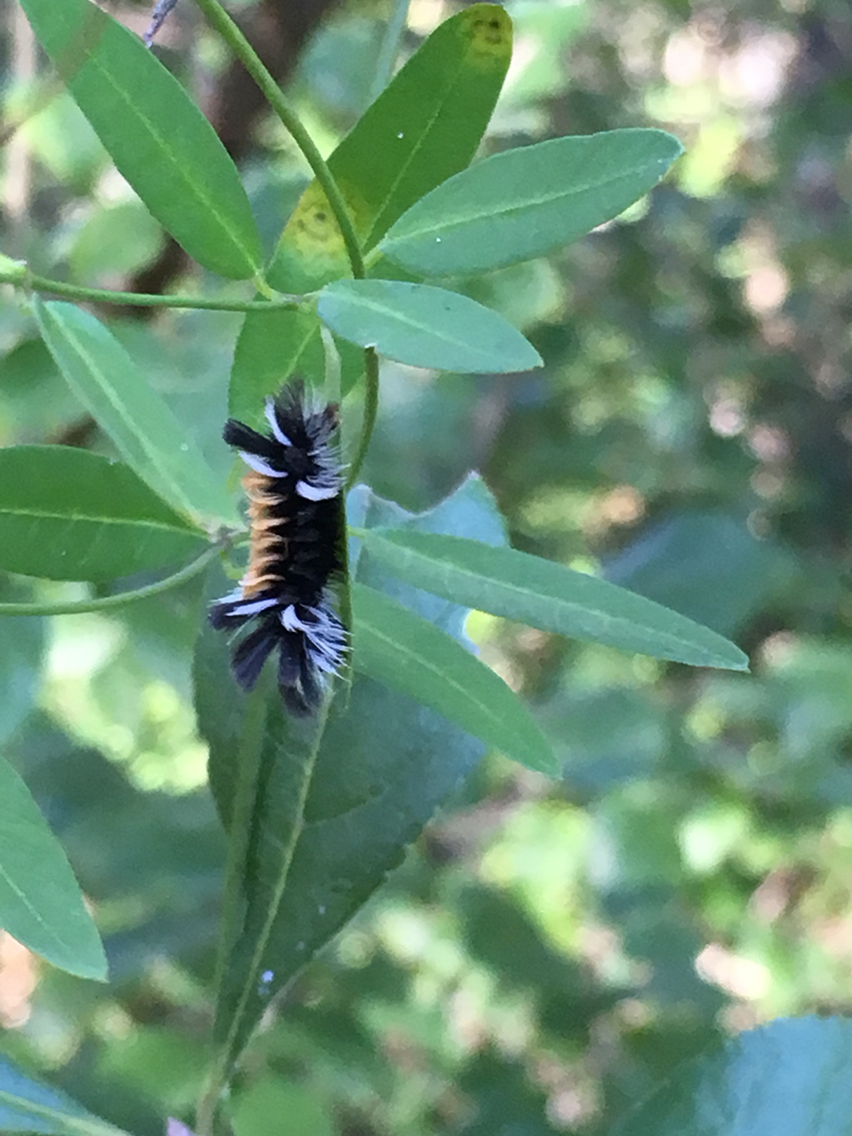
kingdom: Animalia
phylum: Arthropoda
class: Insecta
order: Lepidoptera
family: Erebidae
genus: Euchaetes
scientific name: Euchaetes egle
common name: Milkweed tussock moth
